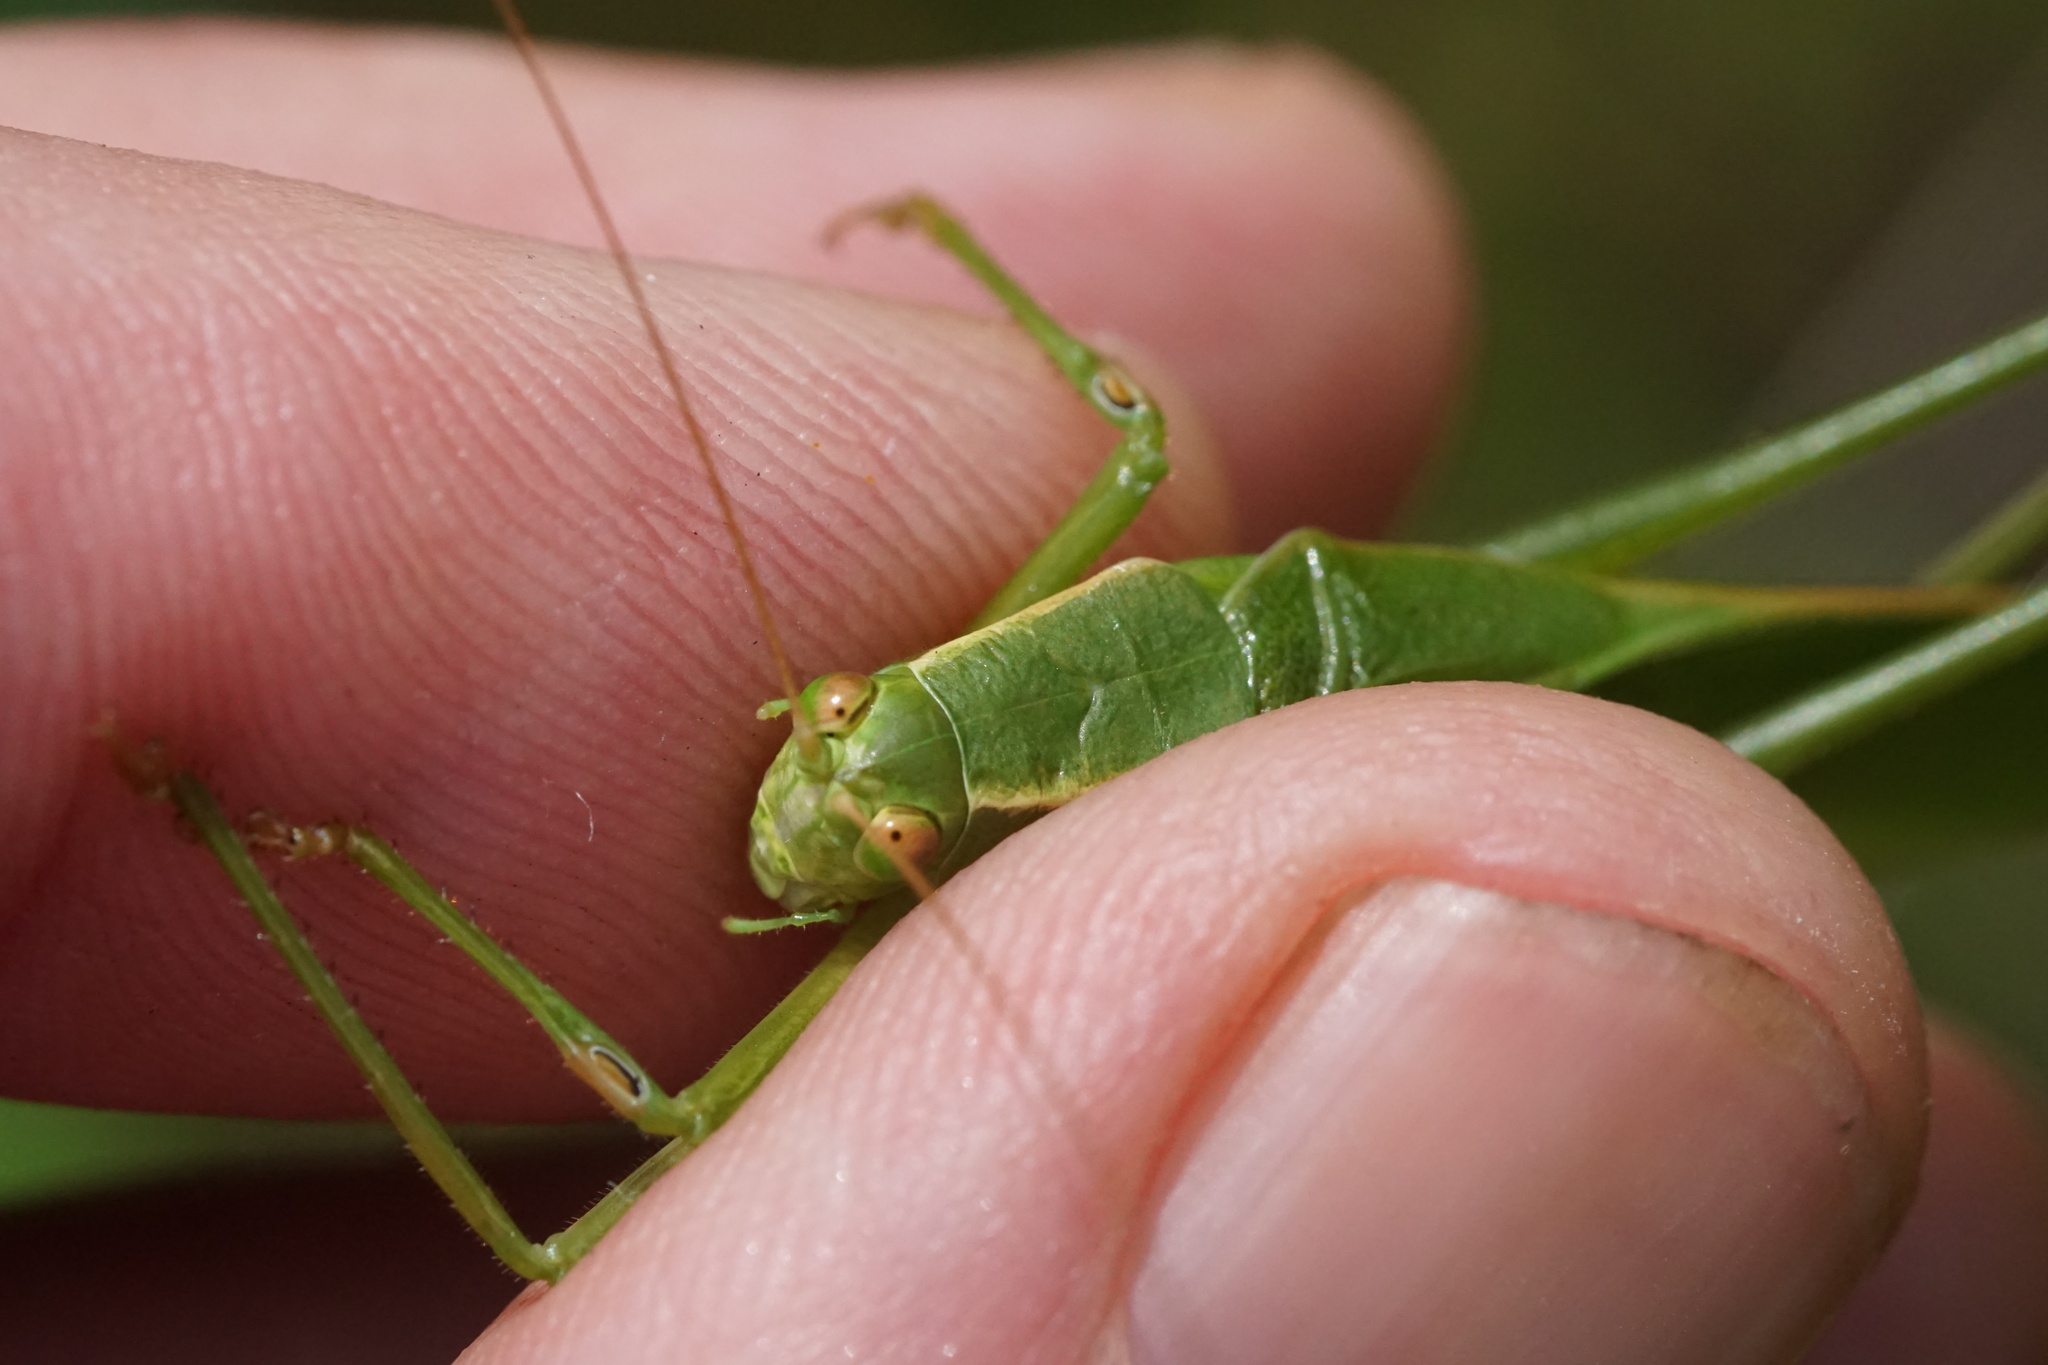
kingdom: Animalia
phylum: Arthropoda
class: Insecta
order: Orthoptera
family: Tettigoniidae
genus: Scudderia
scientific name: Scudderia curvicauda
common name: Curve-tailed bush katydid
